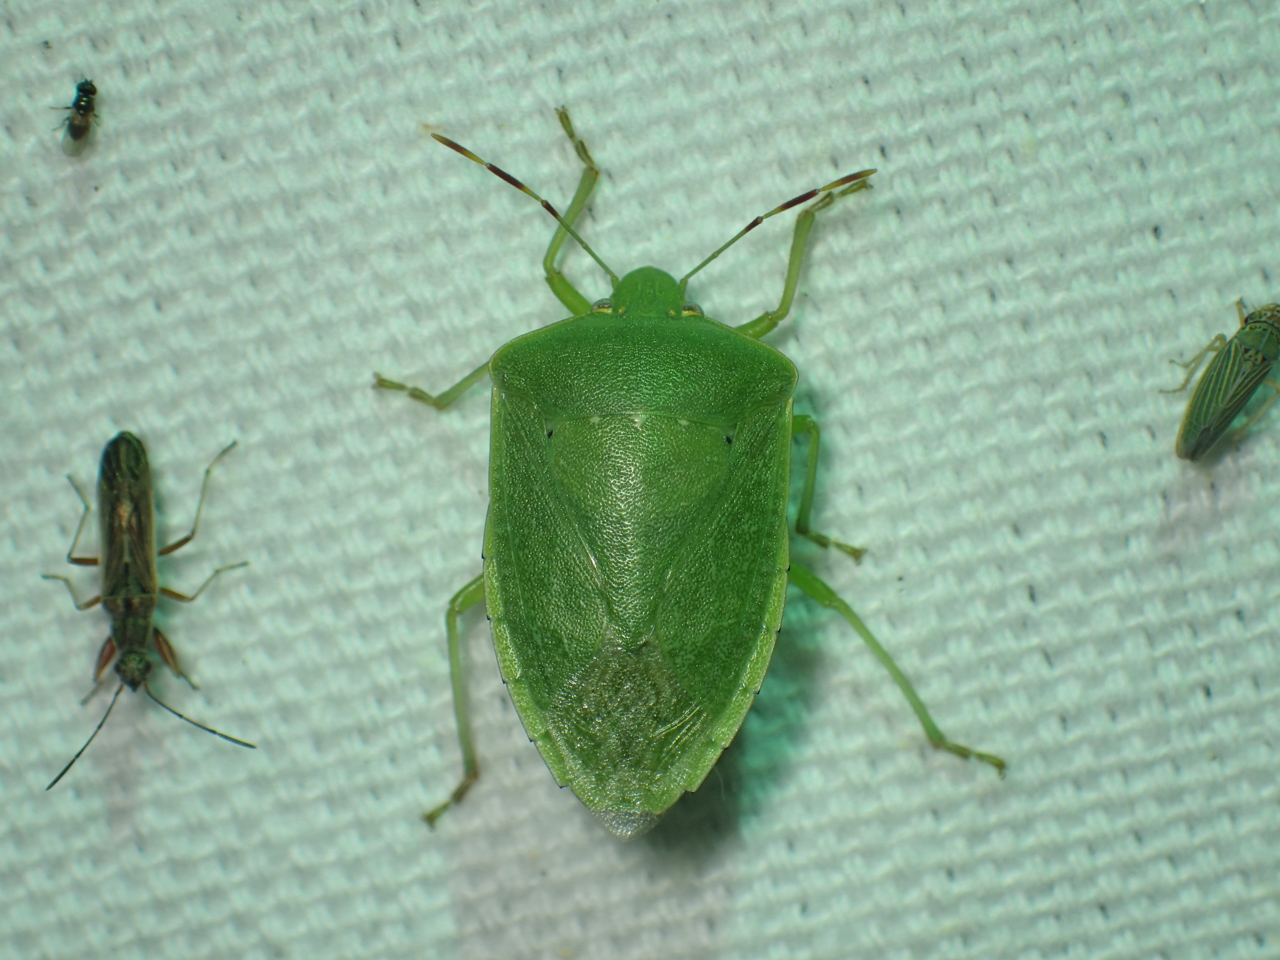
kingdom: Animalia
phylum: Arthropoda
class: Insecta
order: Hemiptera
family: Pentatomidae
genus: Nezara
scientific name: Nezara viridula
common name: Southern green stink bug
